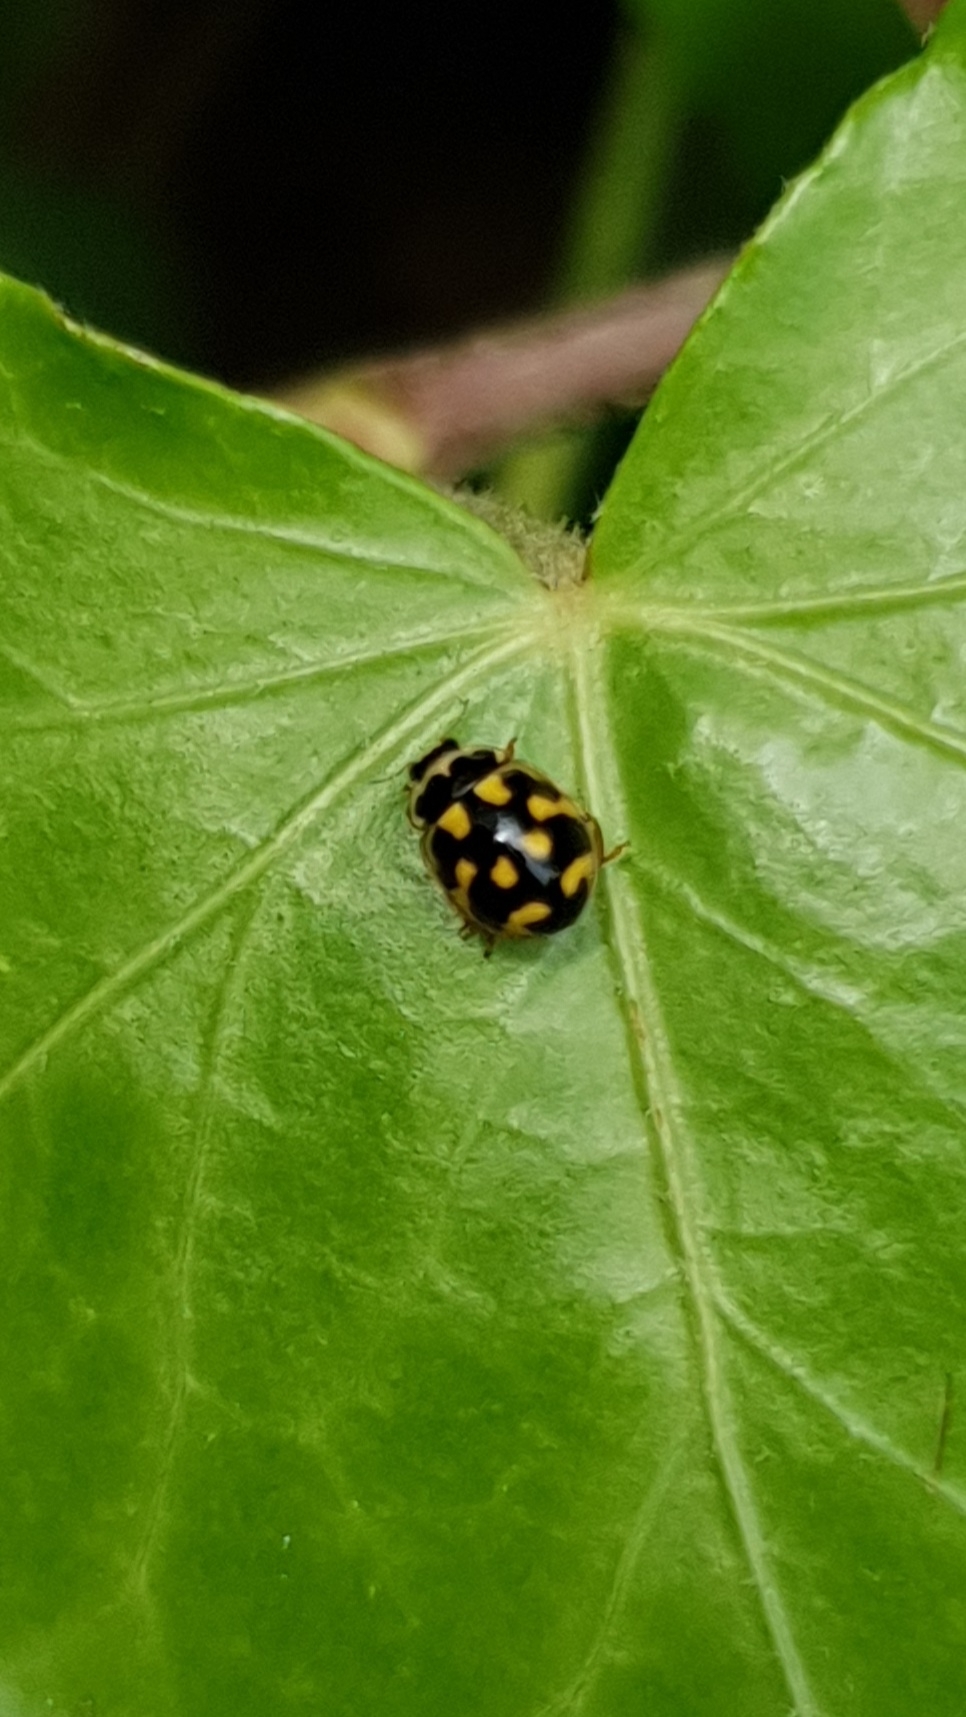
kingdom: Animalia
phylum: Arthropoda
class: Insecta
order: Coleoptera
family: Coccinellidae
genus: Propylaea
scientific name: Propylaea quatuordecimpunctata
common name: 14-spotted ladybird beetle
